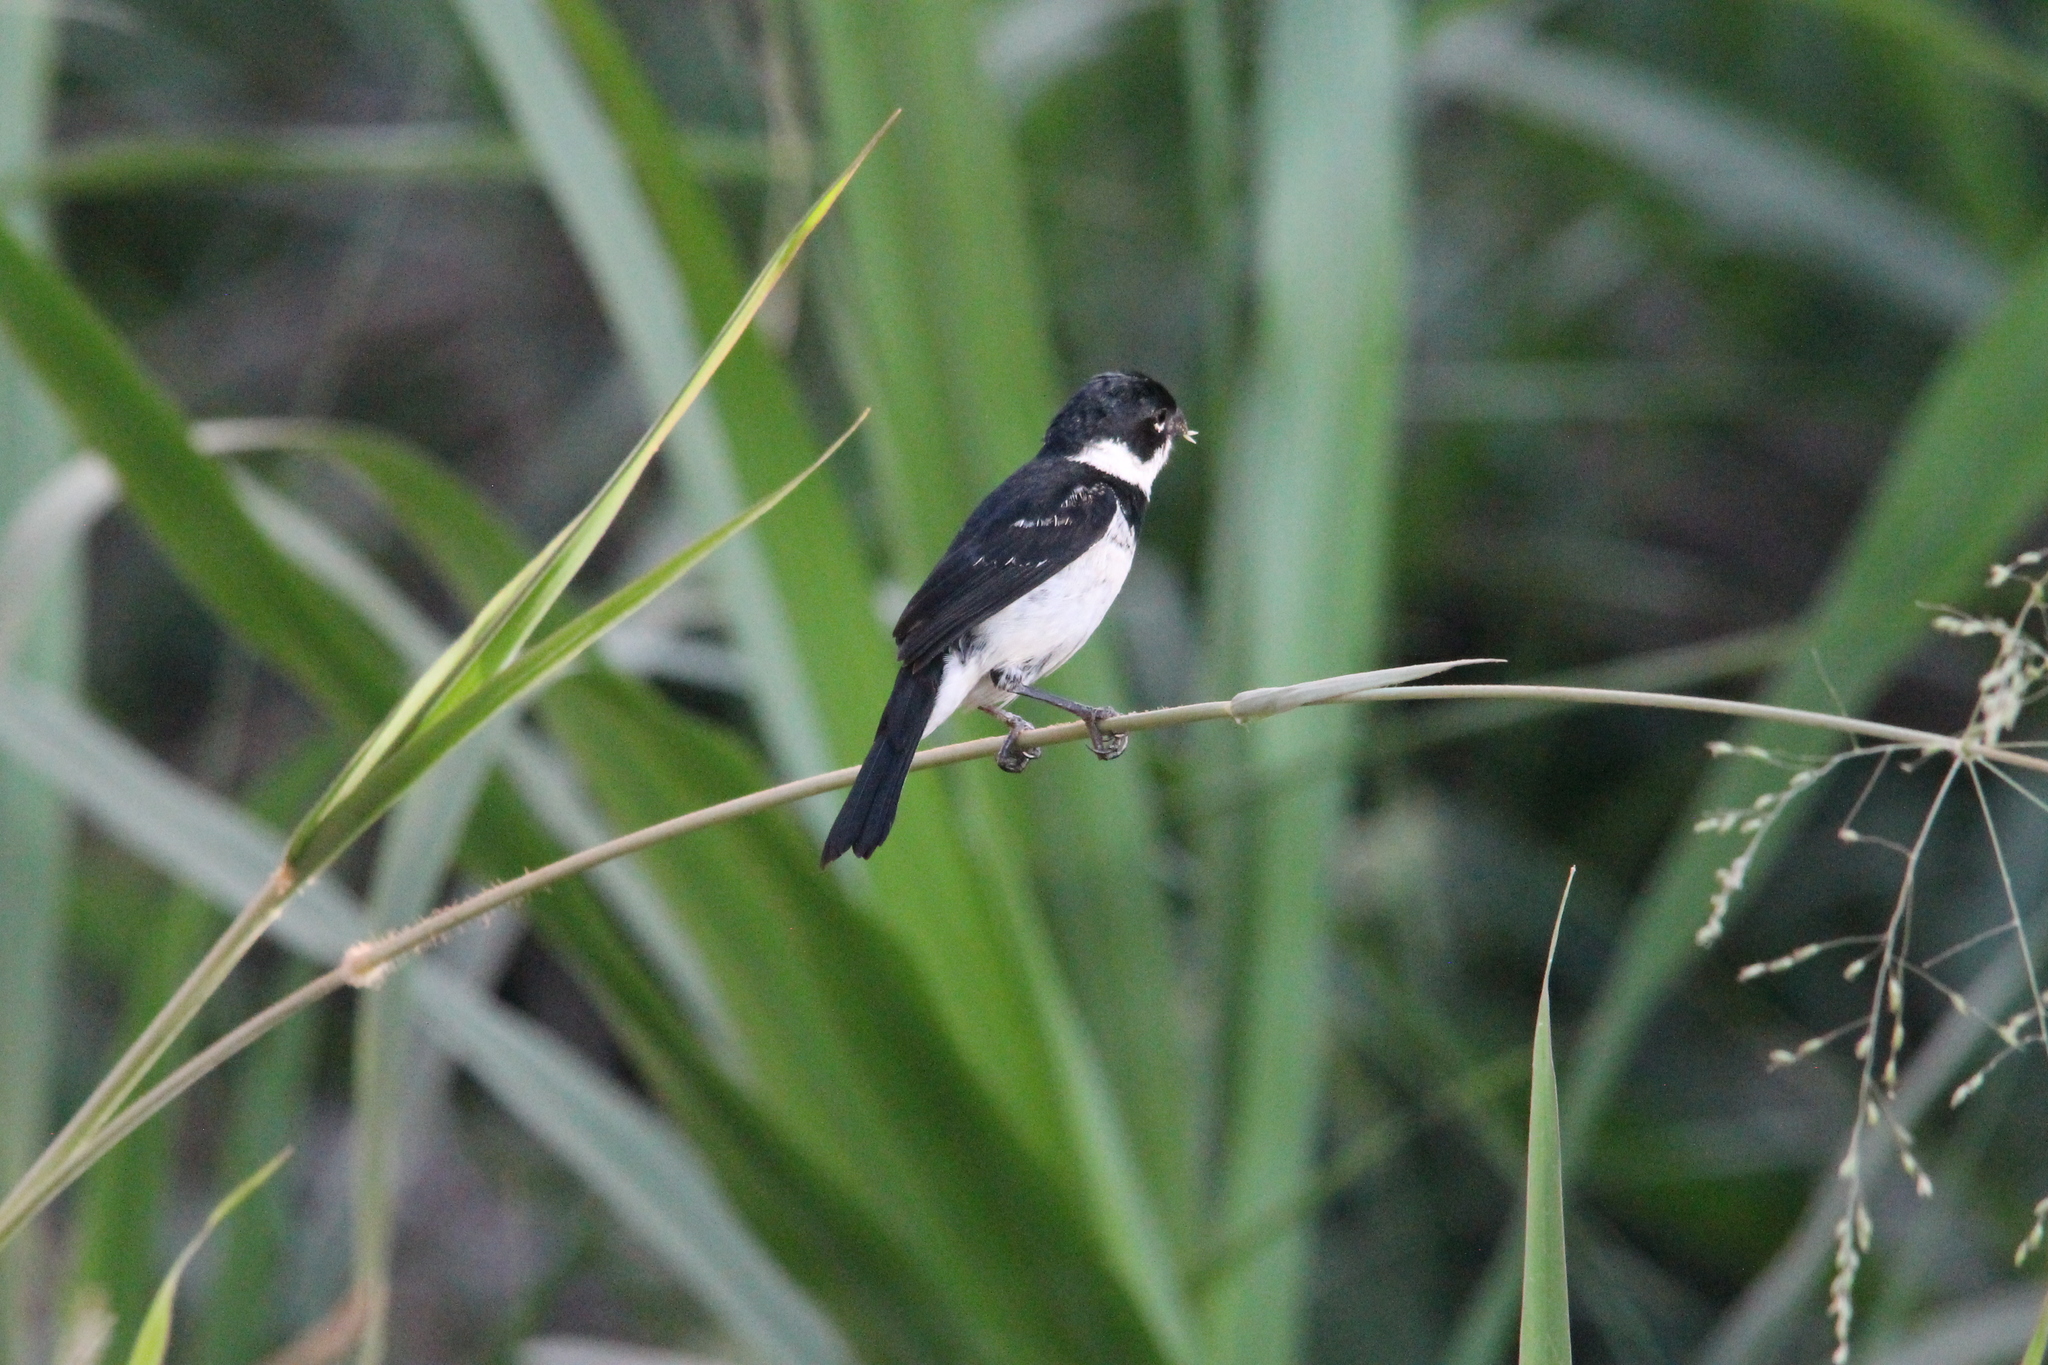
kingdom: Animalia
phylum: Chordata
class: Aves
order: Passeriformes
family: Thraupidae
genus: Sporophila
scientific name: Sporophila morelleti
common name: Morelet's seedeater
